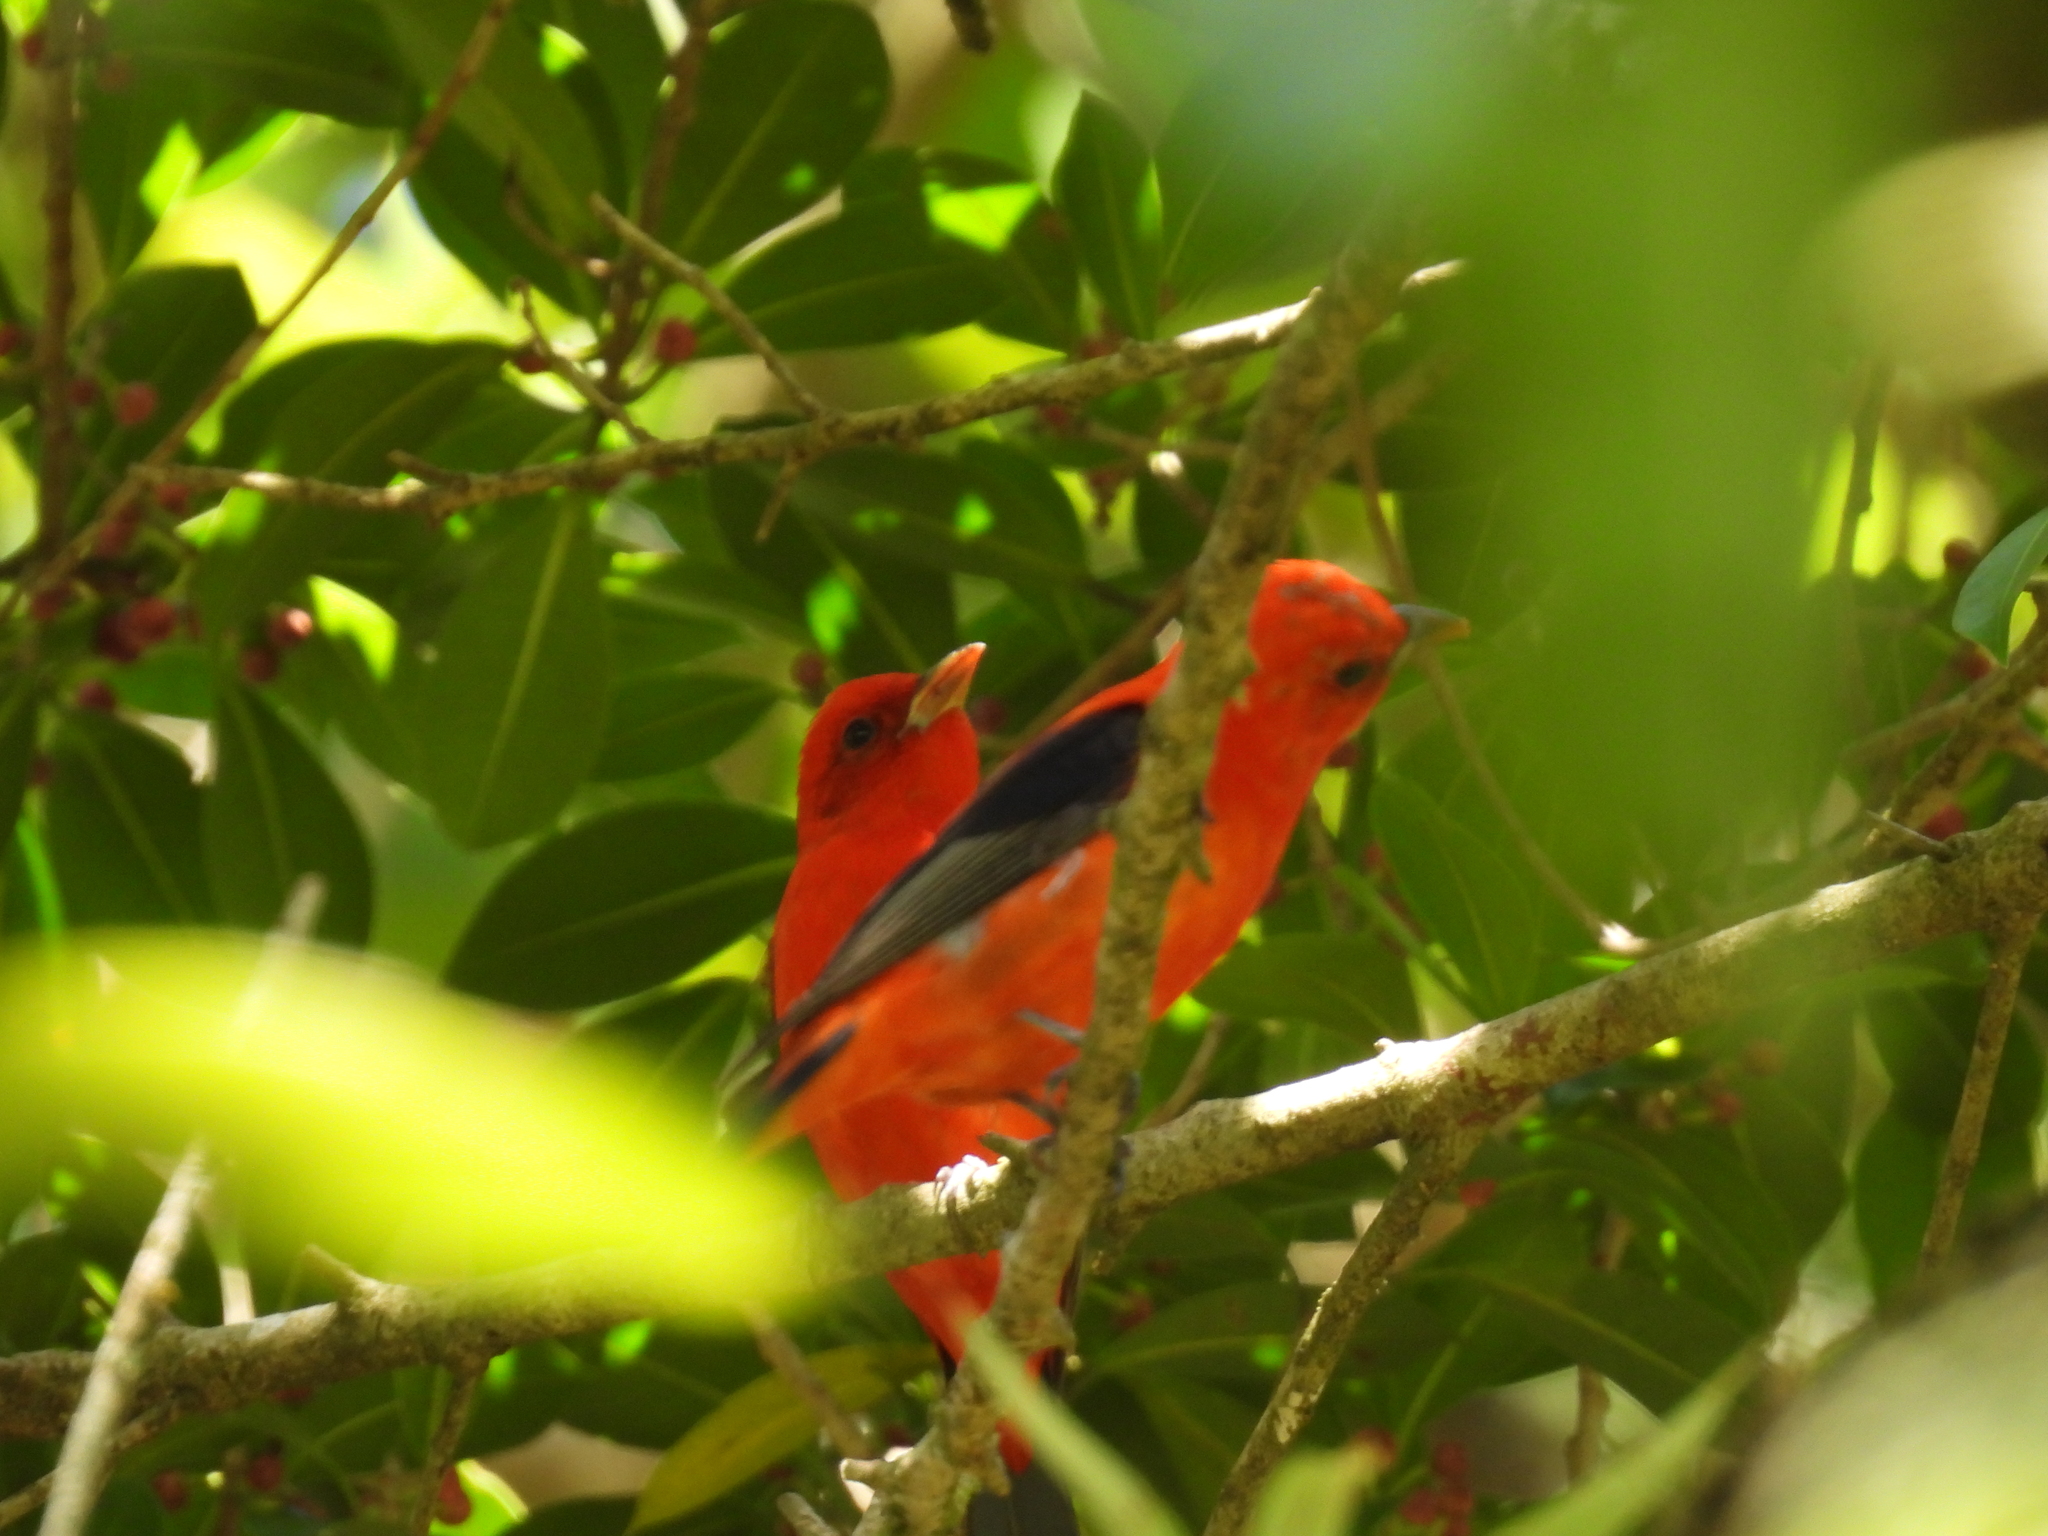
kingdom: Animalia
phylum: Chordata
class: Aves
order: Passeriformes
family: Cardinalidae
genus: Piranga
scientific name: Piranga olivacea
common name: Scarlet tanager
